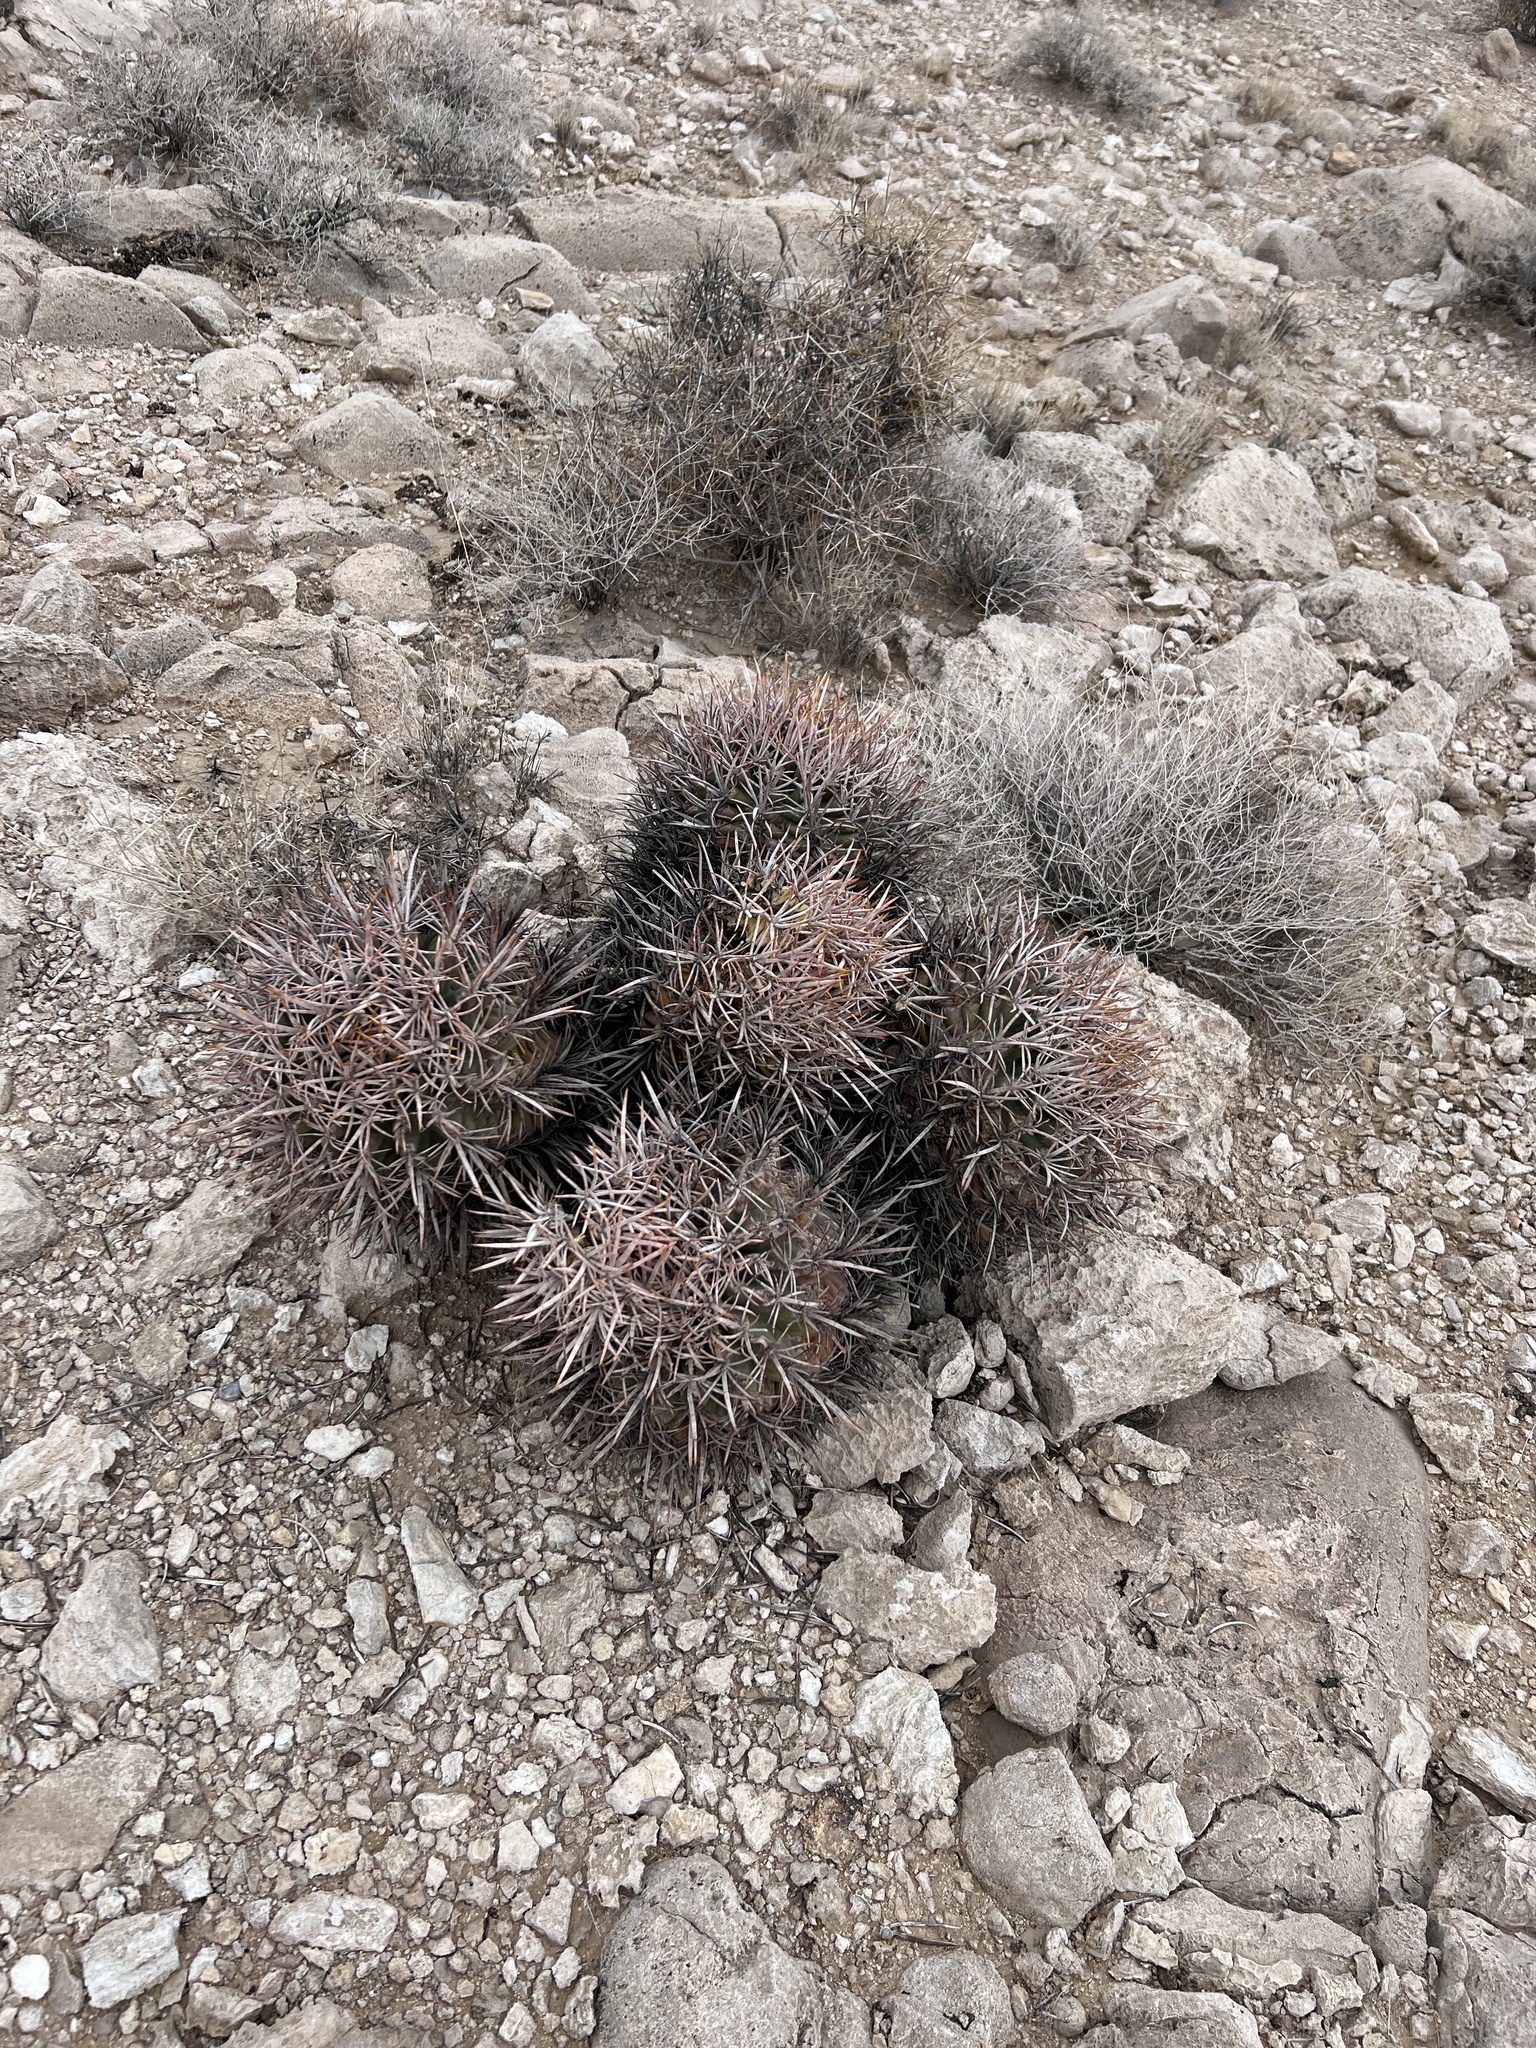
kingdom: Plantae
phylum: Tracheophyta
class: Magnoliopsida
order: Caryophyllales
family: Cactaceae
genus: Echinocactus
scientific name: Echinocactus polycephalus
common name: Cottontop cactus
